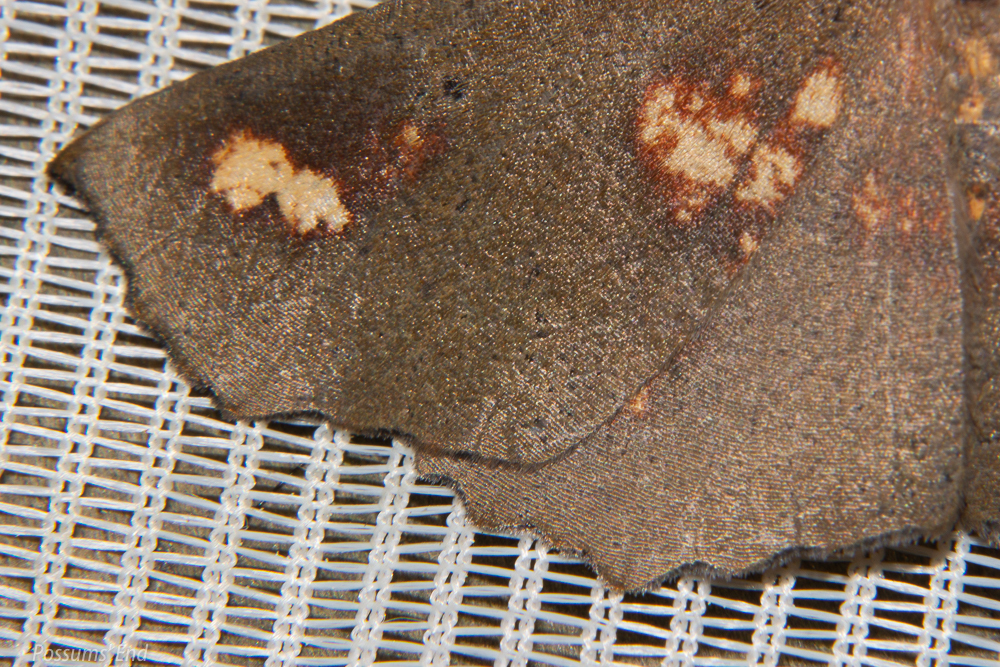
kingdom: Animalia
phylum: Arthropoda
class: Insecta
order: Lepidoptera
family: Geometridae
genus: Xyridacma
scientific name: Xyridacma ustaria
